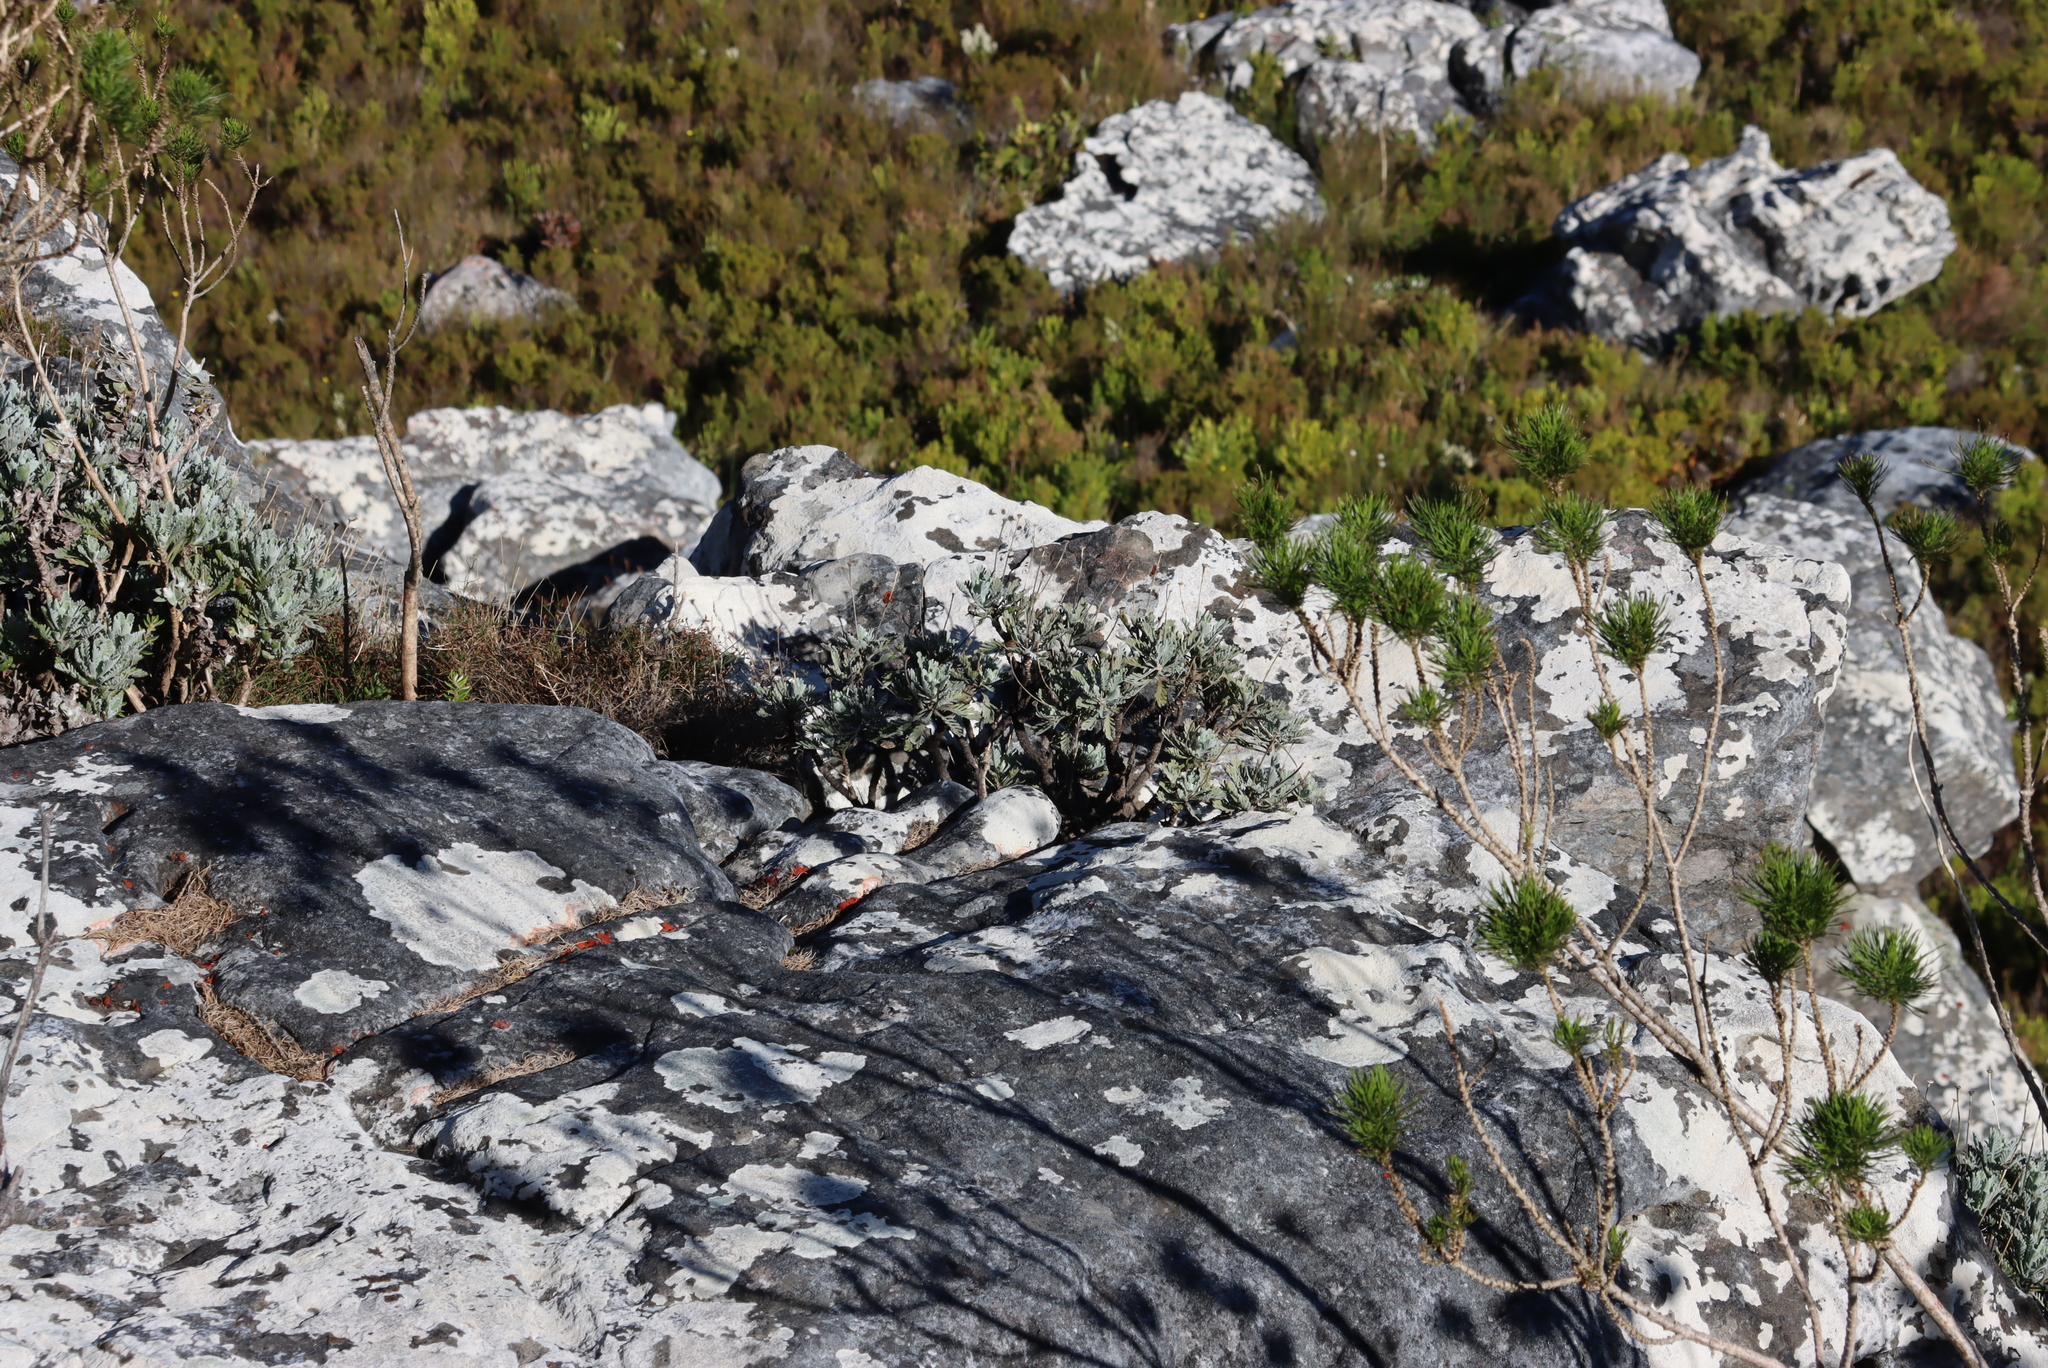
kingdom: Plantae
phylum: Tracheophyta
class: Magnoliopsida
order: Asterales
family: Asteraceae
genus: Euryops
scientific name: Euryops pectinatus
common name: Gray-leaf euryops
